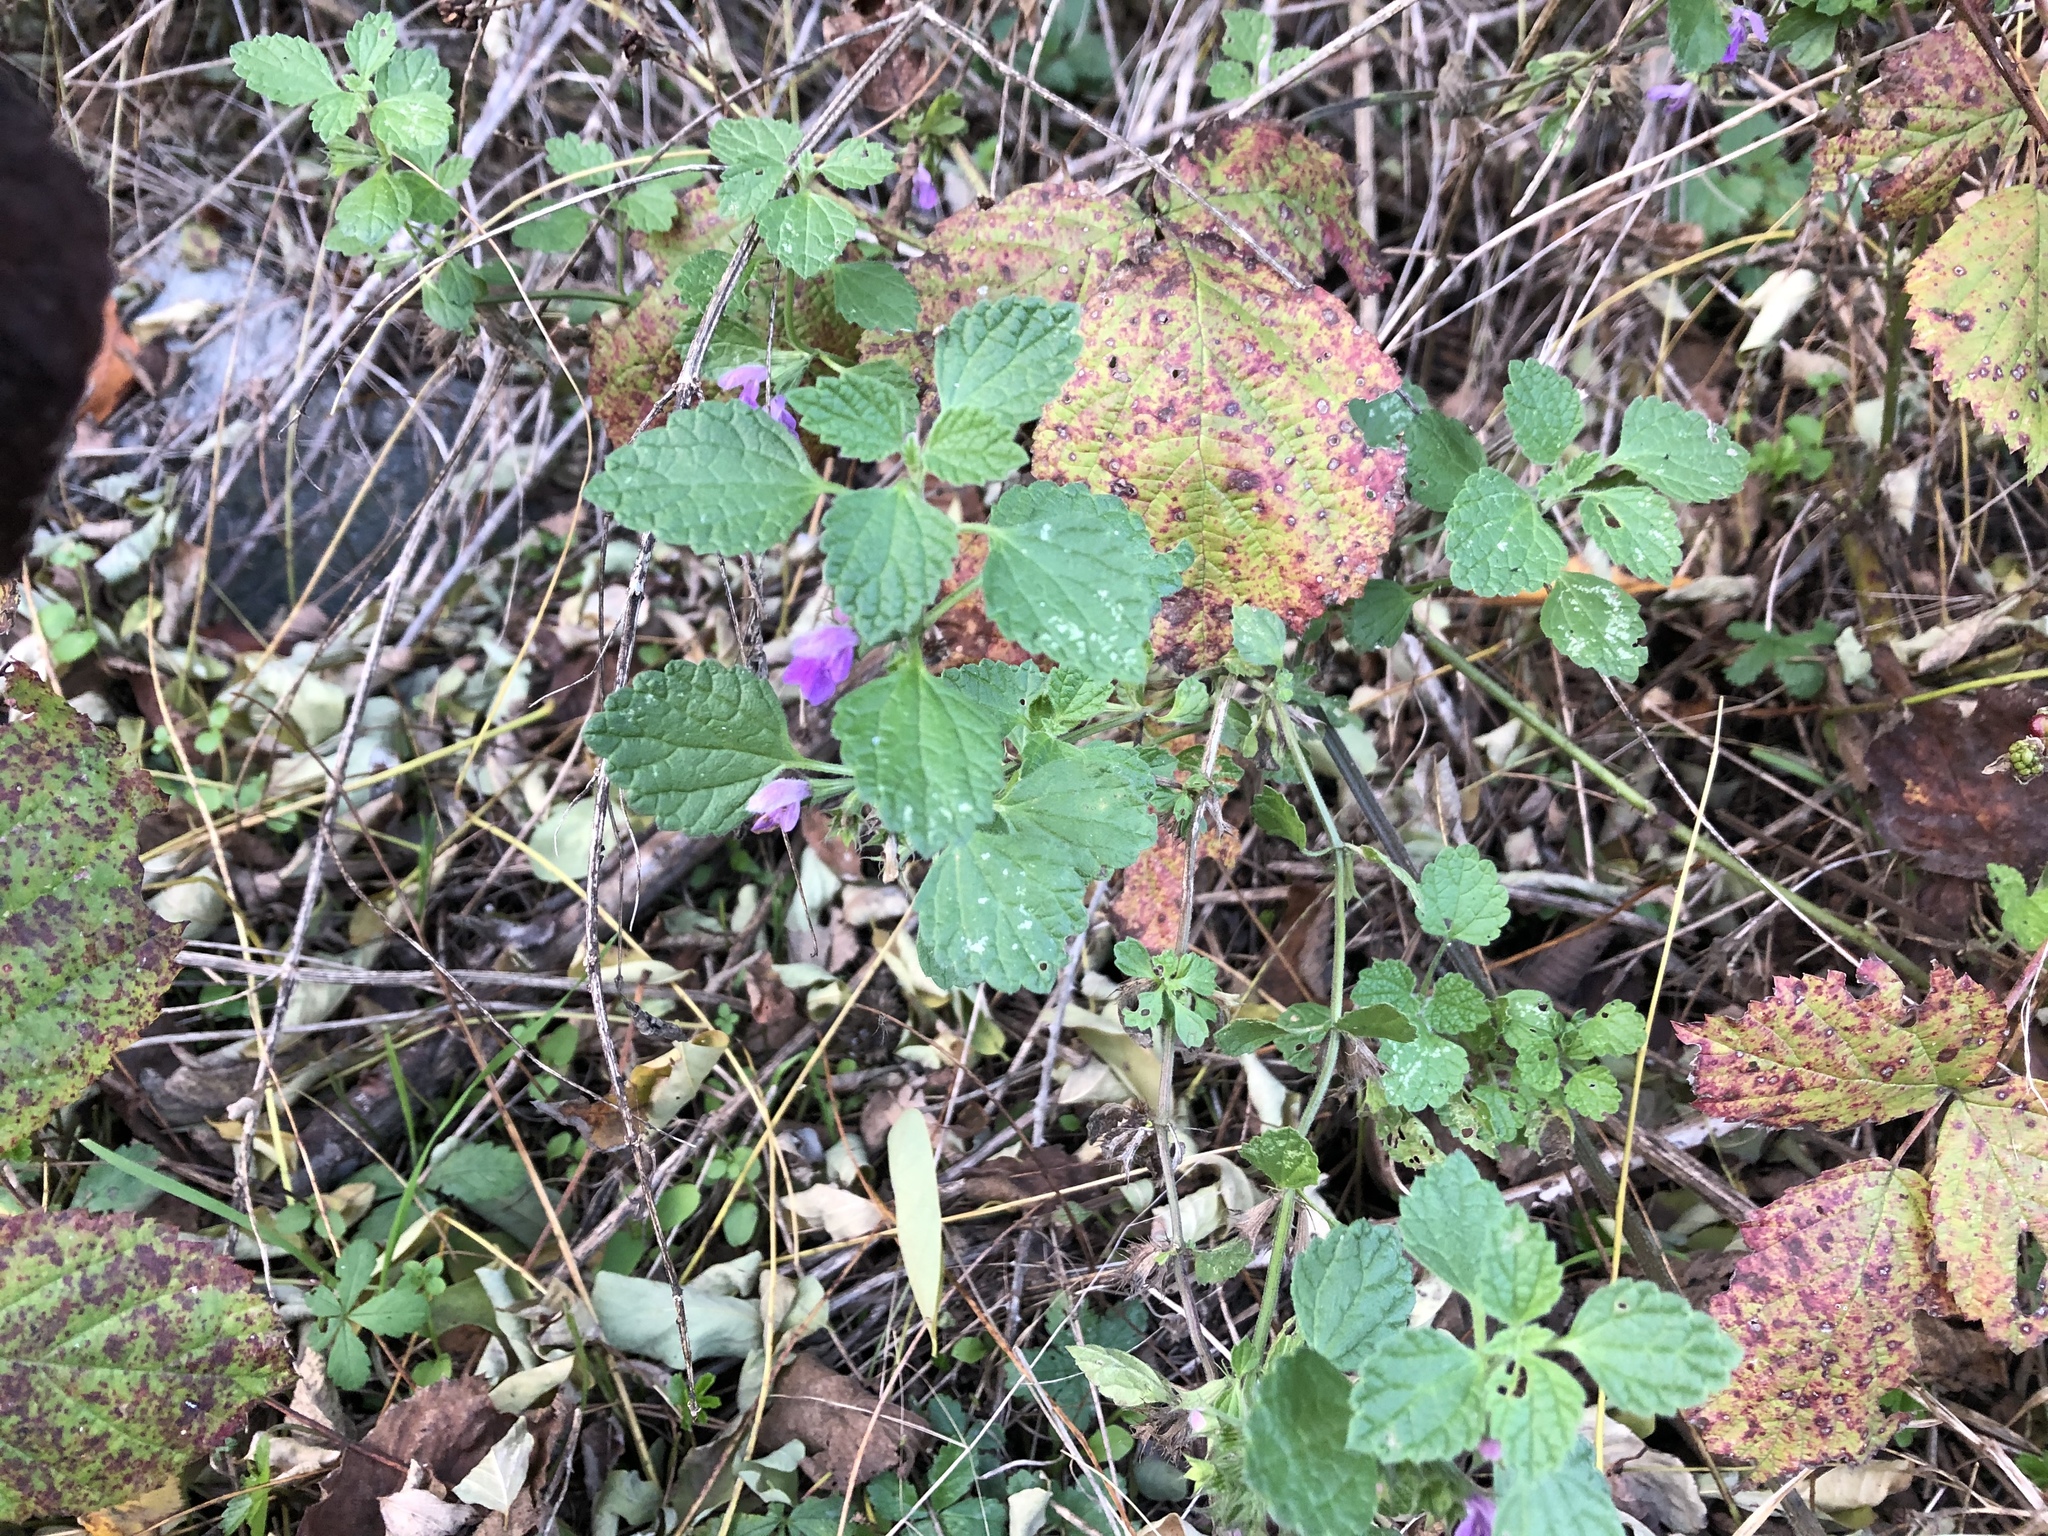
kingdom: Plantae
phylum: Tracheophyta
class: Magnoliopsida
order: Lamiales
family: Lamiaceae
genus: Ballota
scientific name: Ballota nigra
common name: Black horehound
